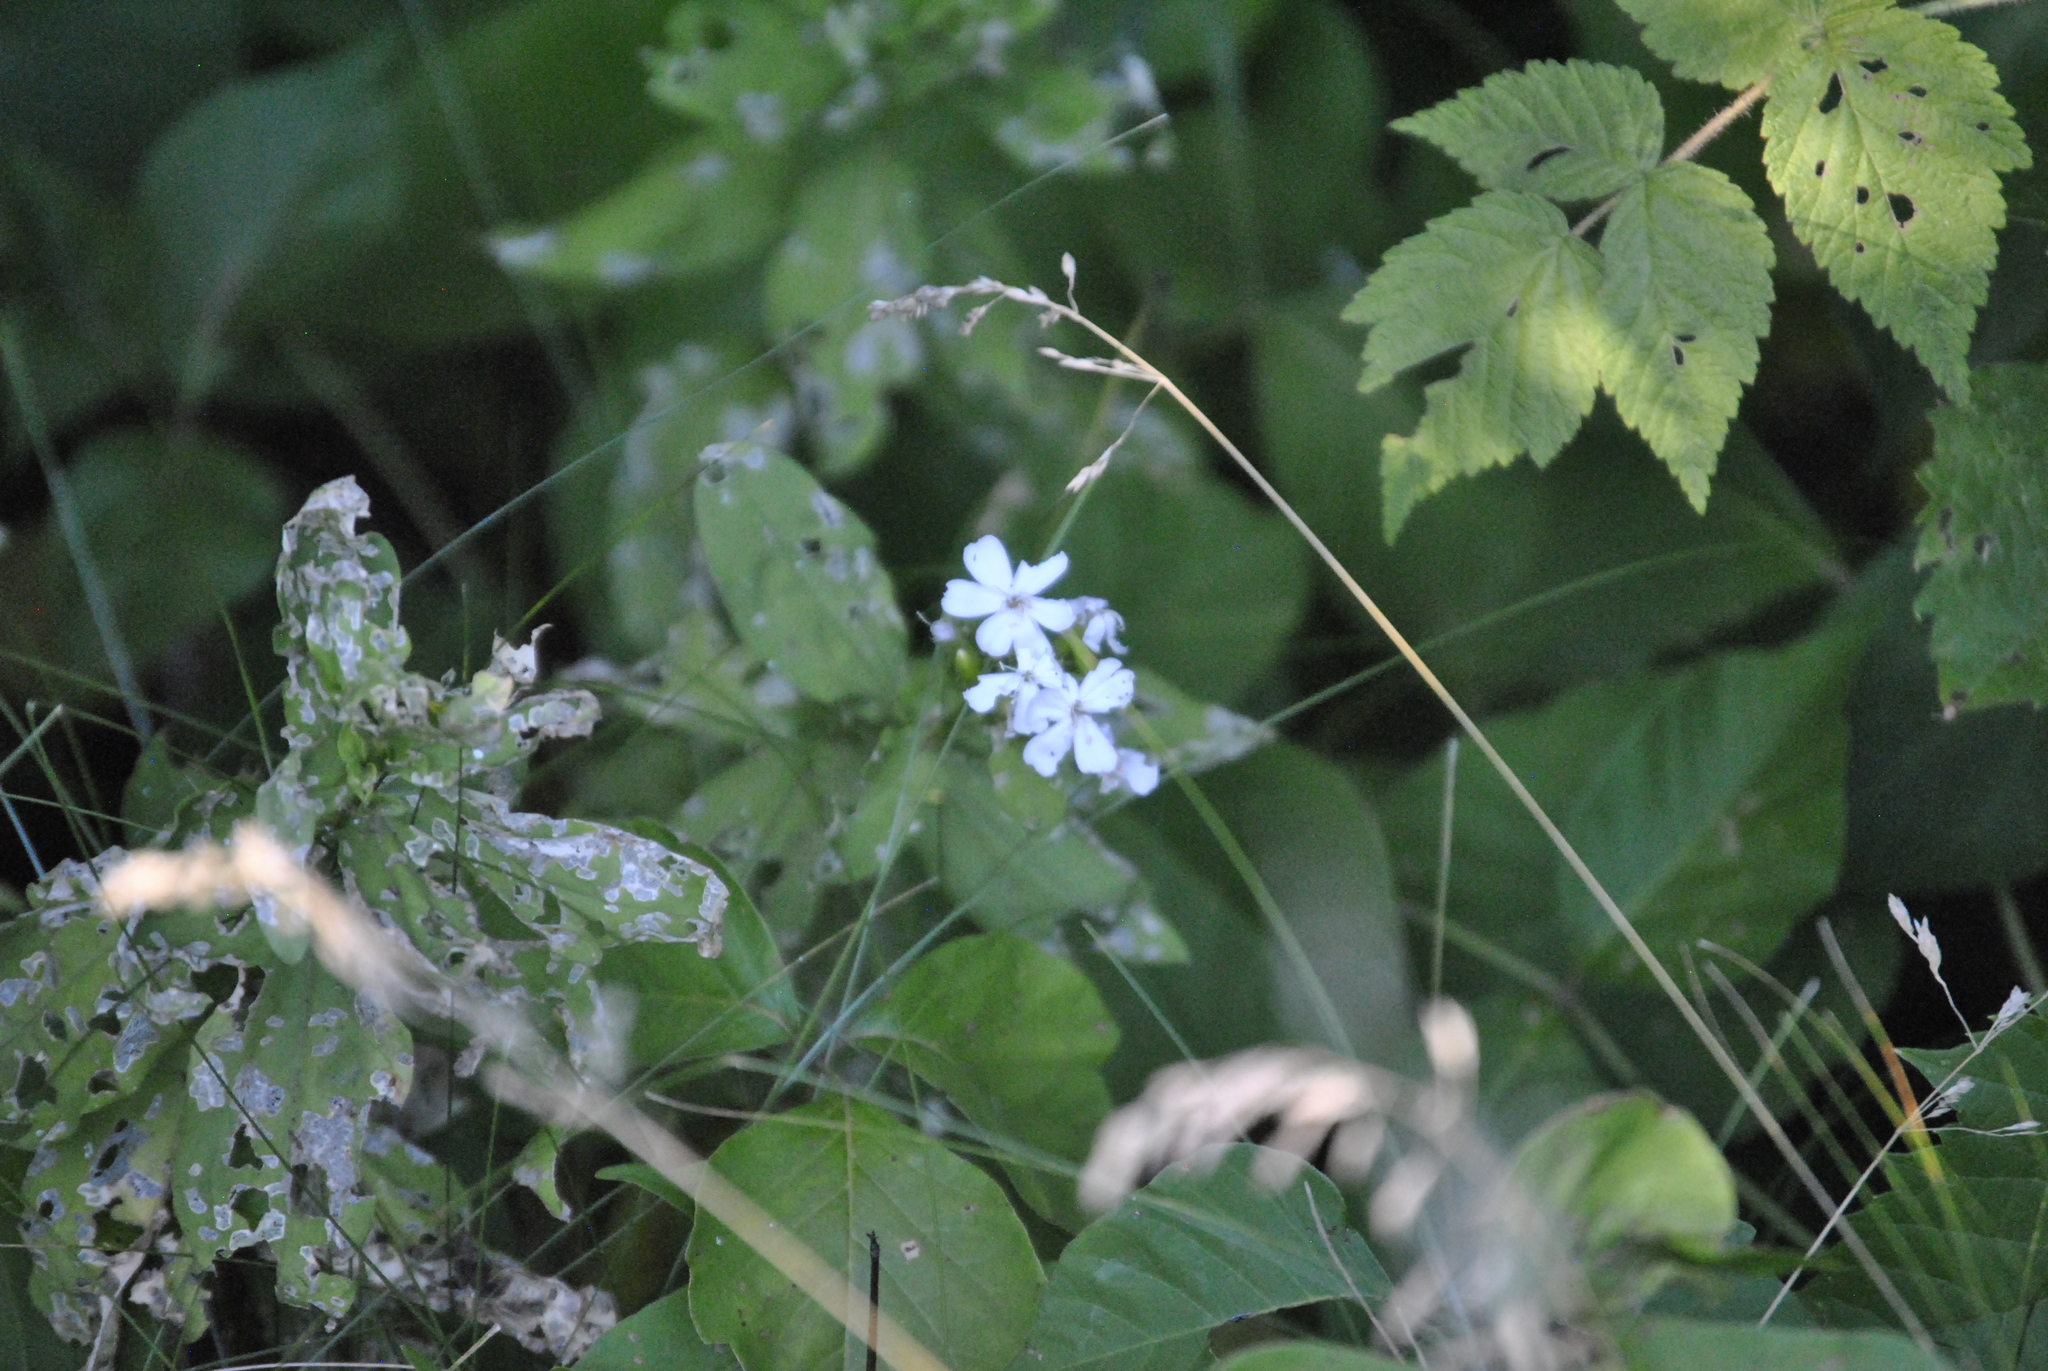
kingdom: Plantae
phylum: Tracheophyta
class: Magnoliopsida
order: Caryophyllales
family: Caryophyllaceae
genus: Saponaria
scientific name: Saponaria officinalis
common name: Soapwort
